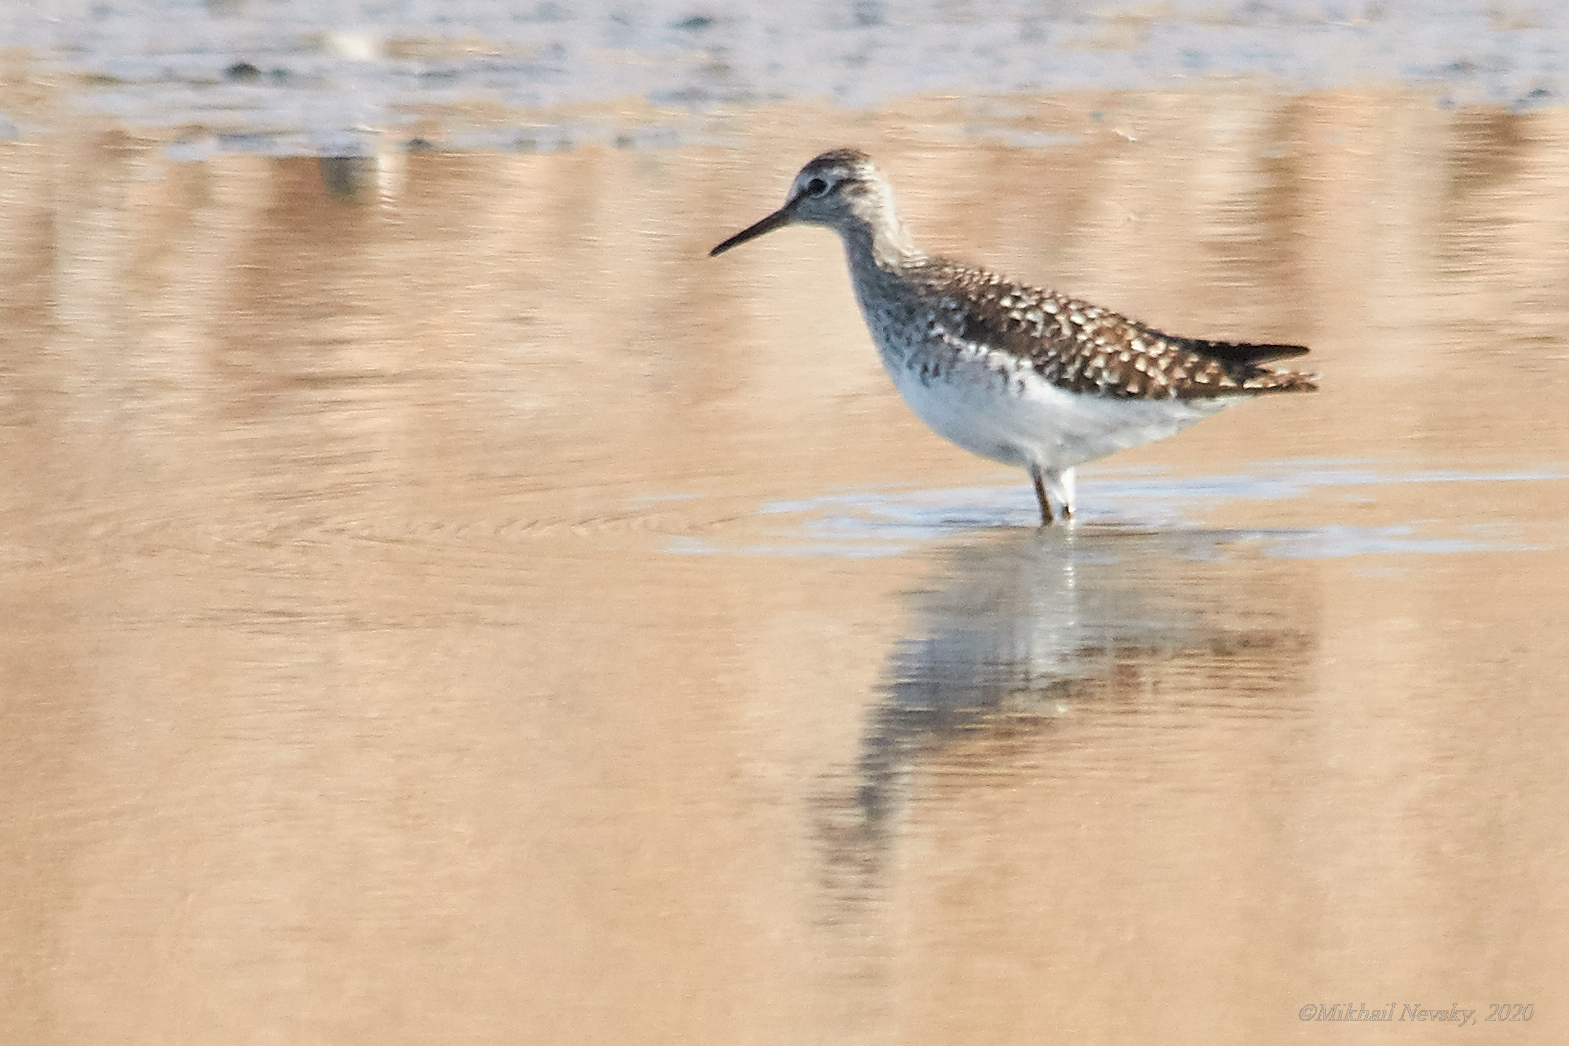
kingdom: Animalia
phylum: Chordata
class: Aves
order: Charadriiformes
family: Scolopacidae
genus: Tringa
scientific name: Tringa glareola
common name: Wood sandpiper
